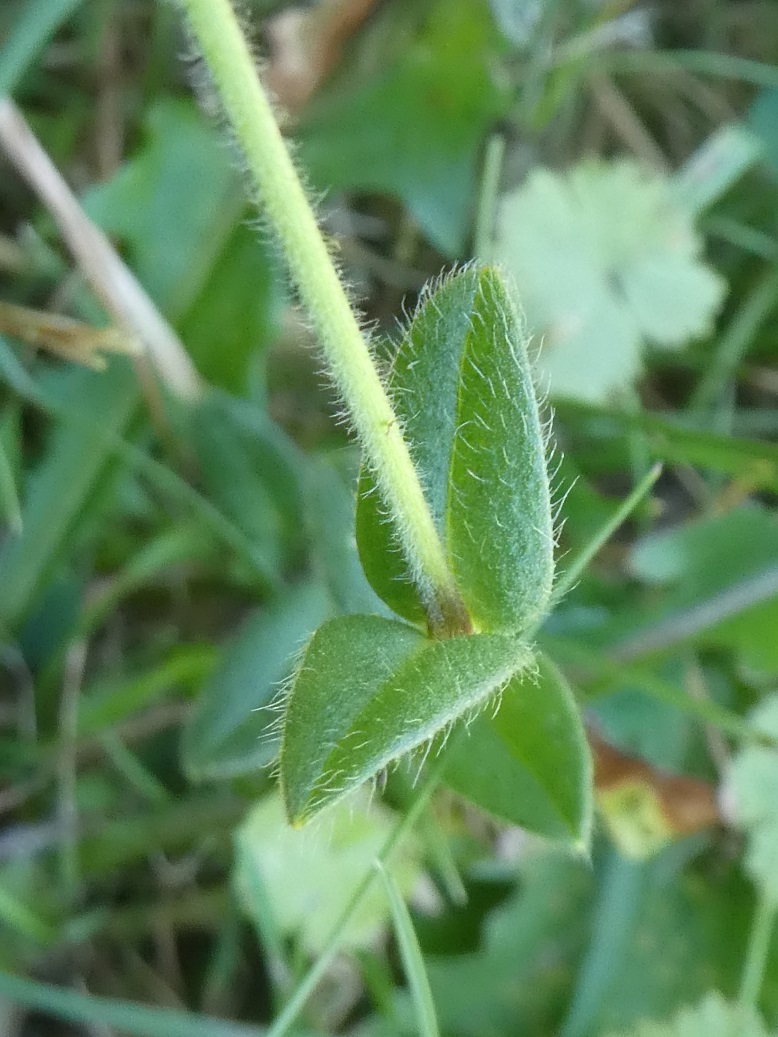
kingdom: Plantae
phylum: Tracheophyta
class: Magnoliopsida
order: Caryophyllales
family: Caryophyllaceae
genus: Cerastium
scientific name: Cerastium fontanum
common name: Common mouse-ear
